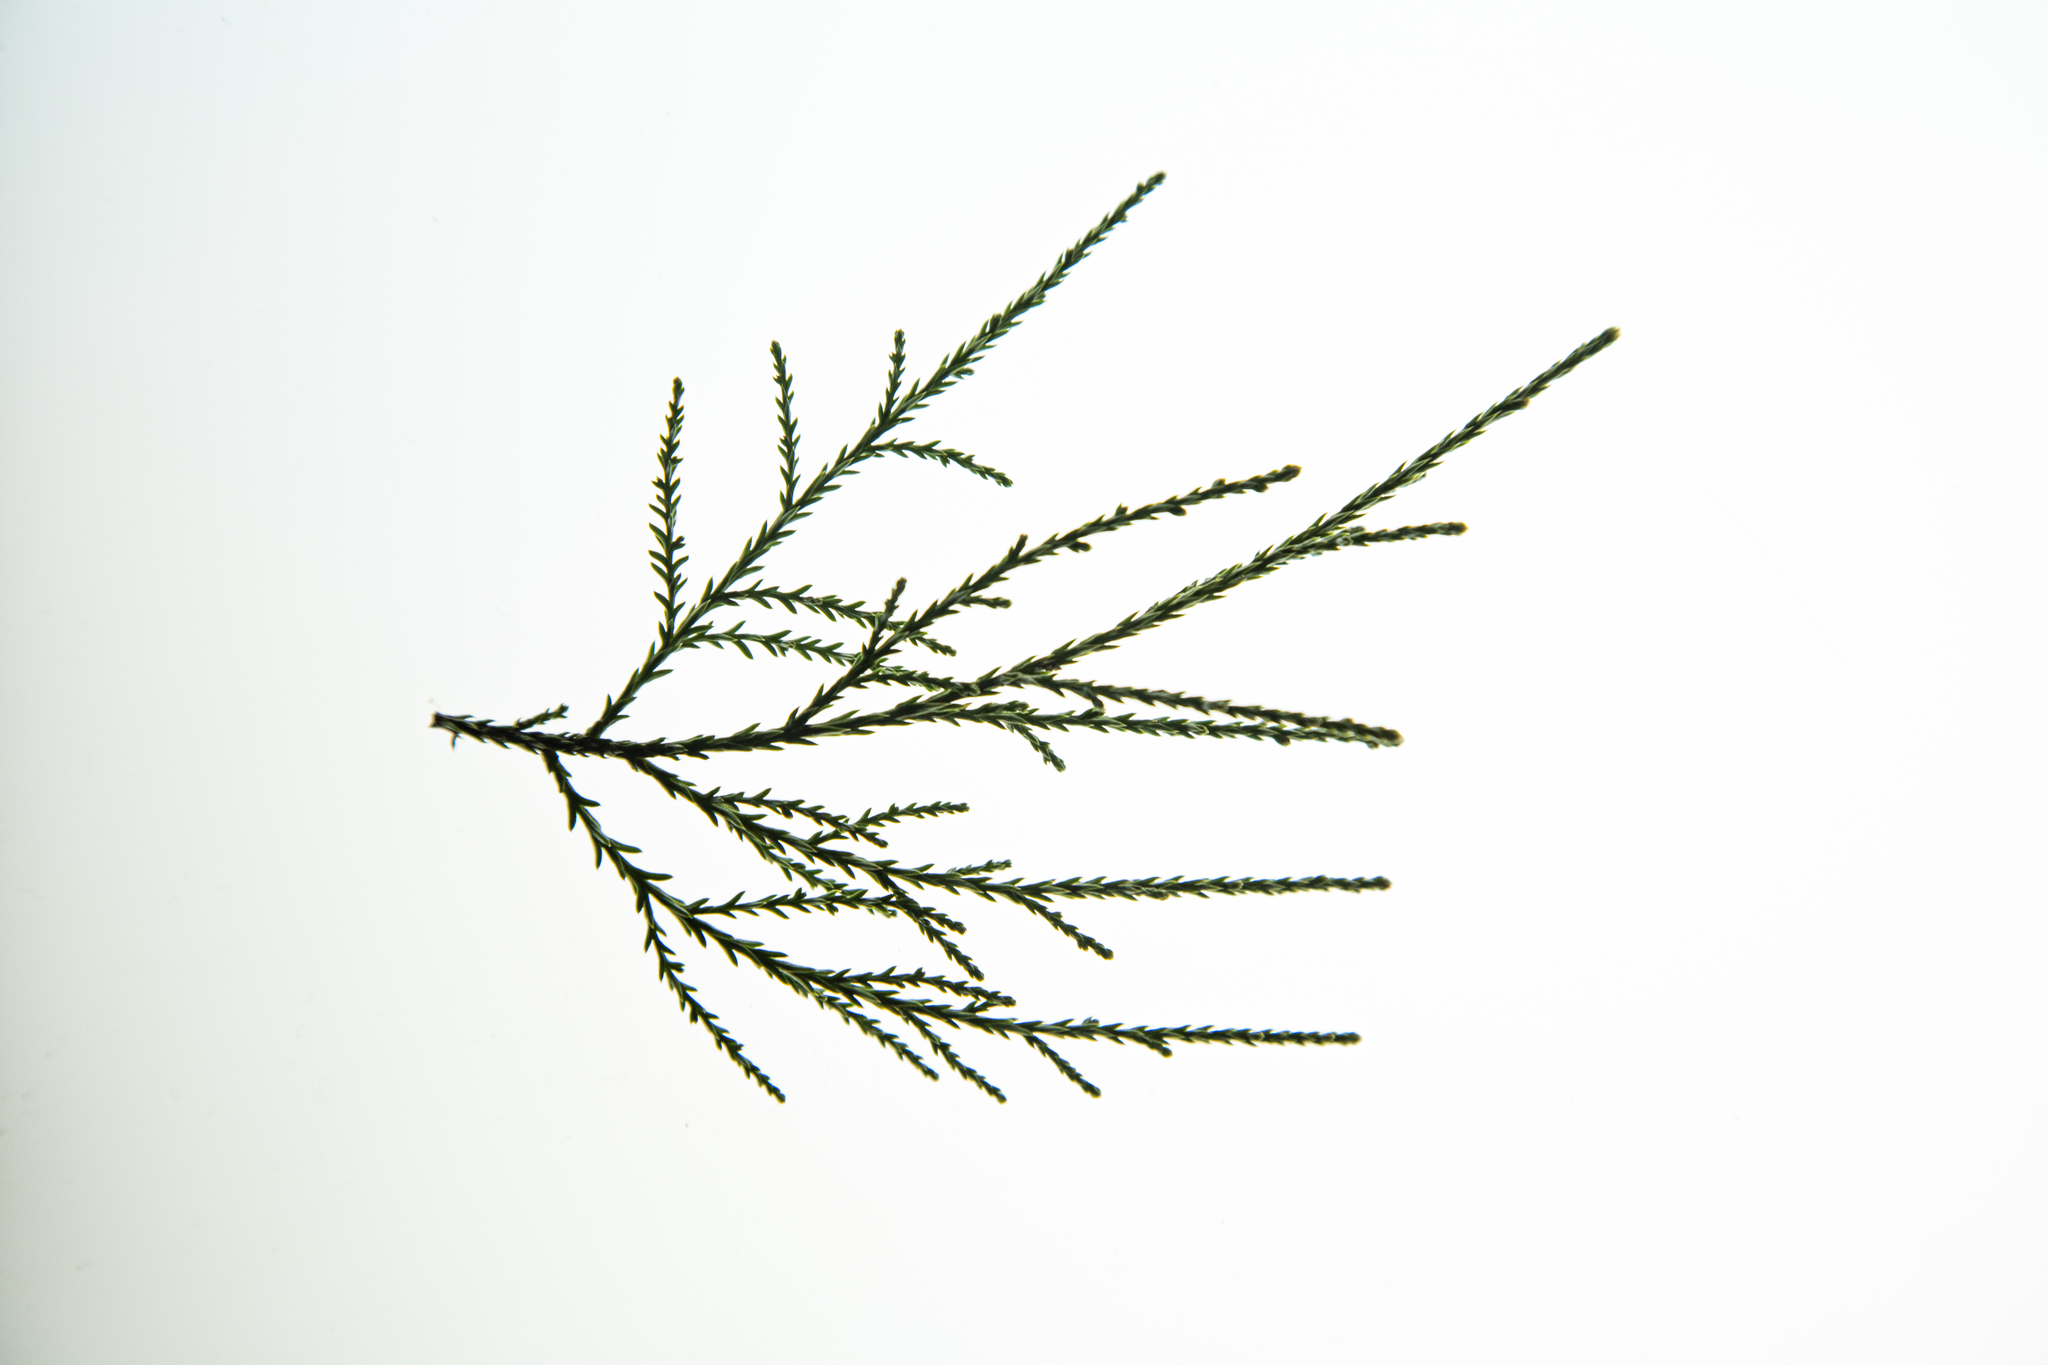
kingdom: Plantae
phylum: Tracheophyta
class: Pinopsida
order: Pinales
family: Podocarpaceae
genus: Dacrycarpus
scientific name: Dacrycarpus dacrydioides
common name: White pine
